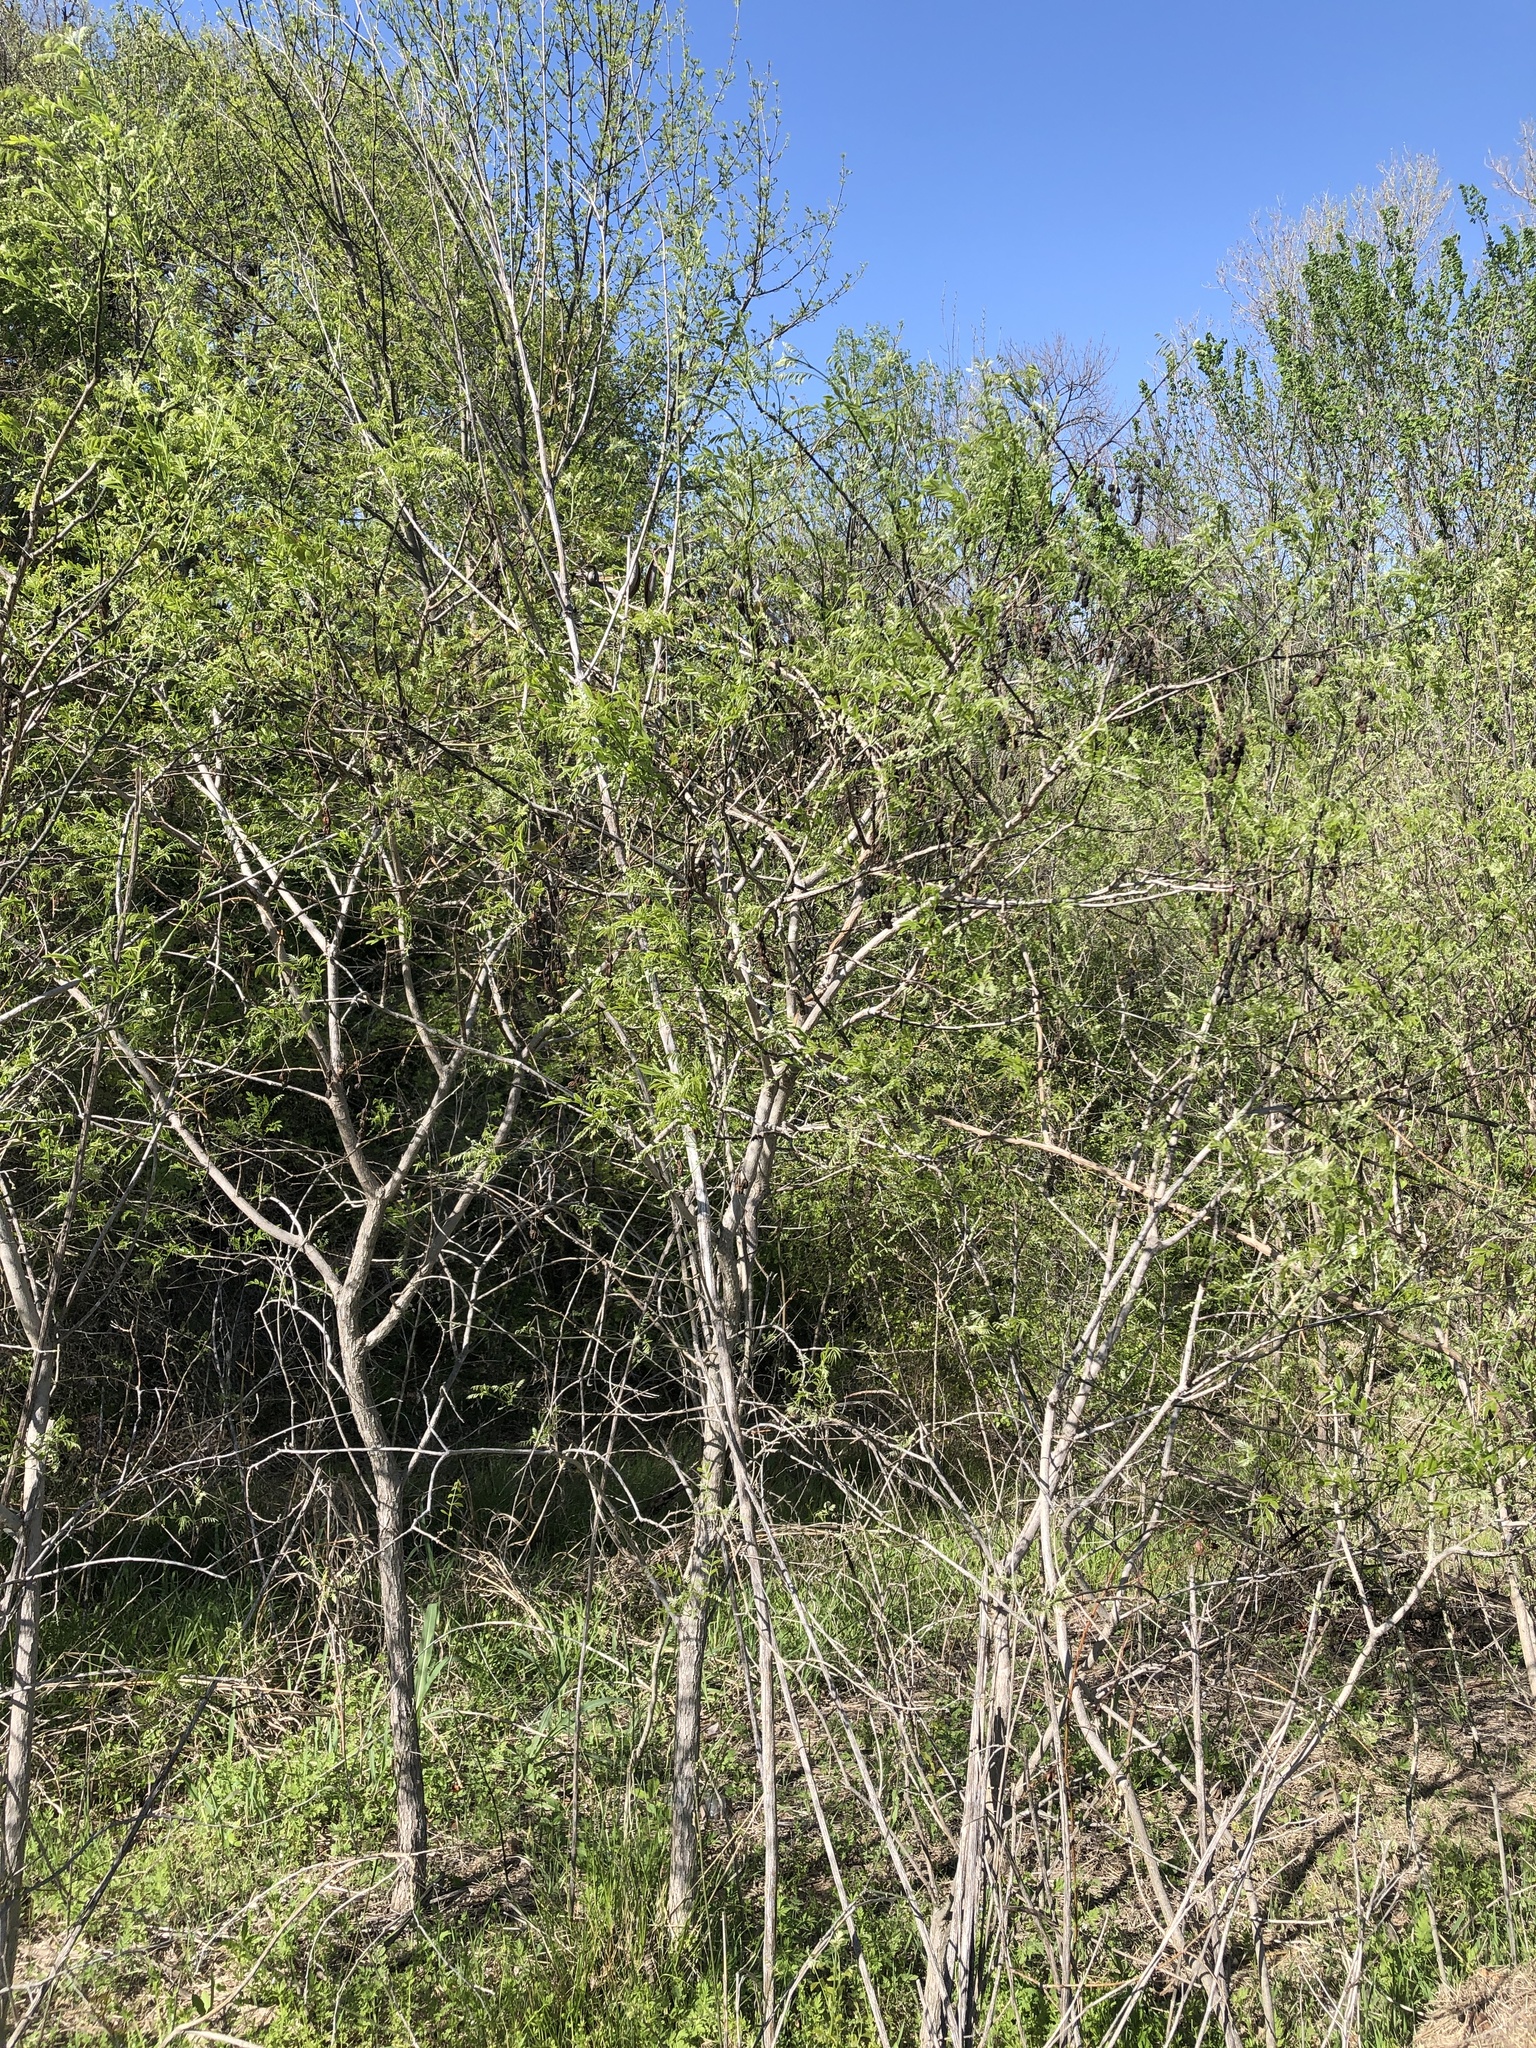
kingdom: Plantae
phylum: Tracheophyta
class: Magnoliopsida
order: Fabales
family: Fabaceae
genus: Styphnolobium
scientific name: Styphnolobium affine
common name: Texas sophora
